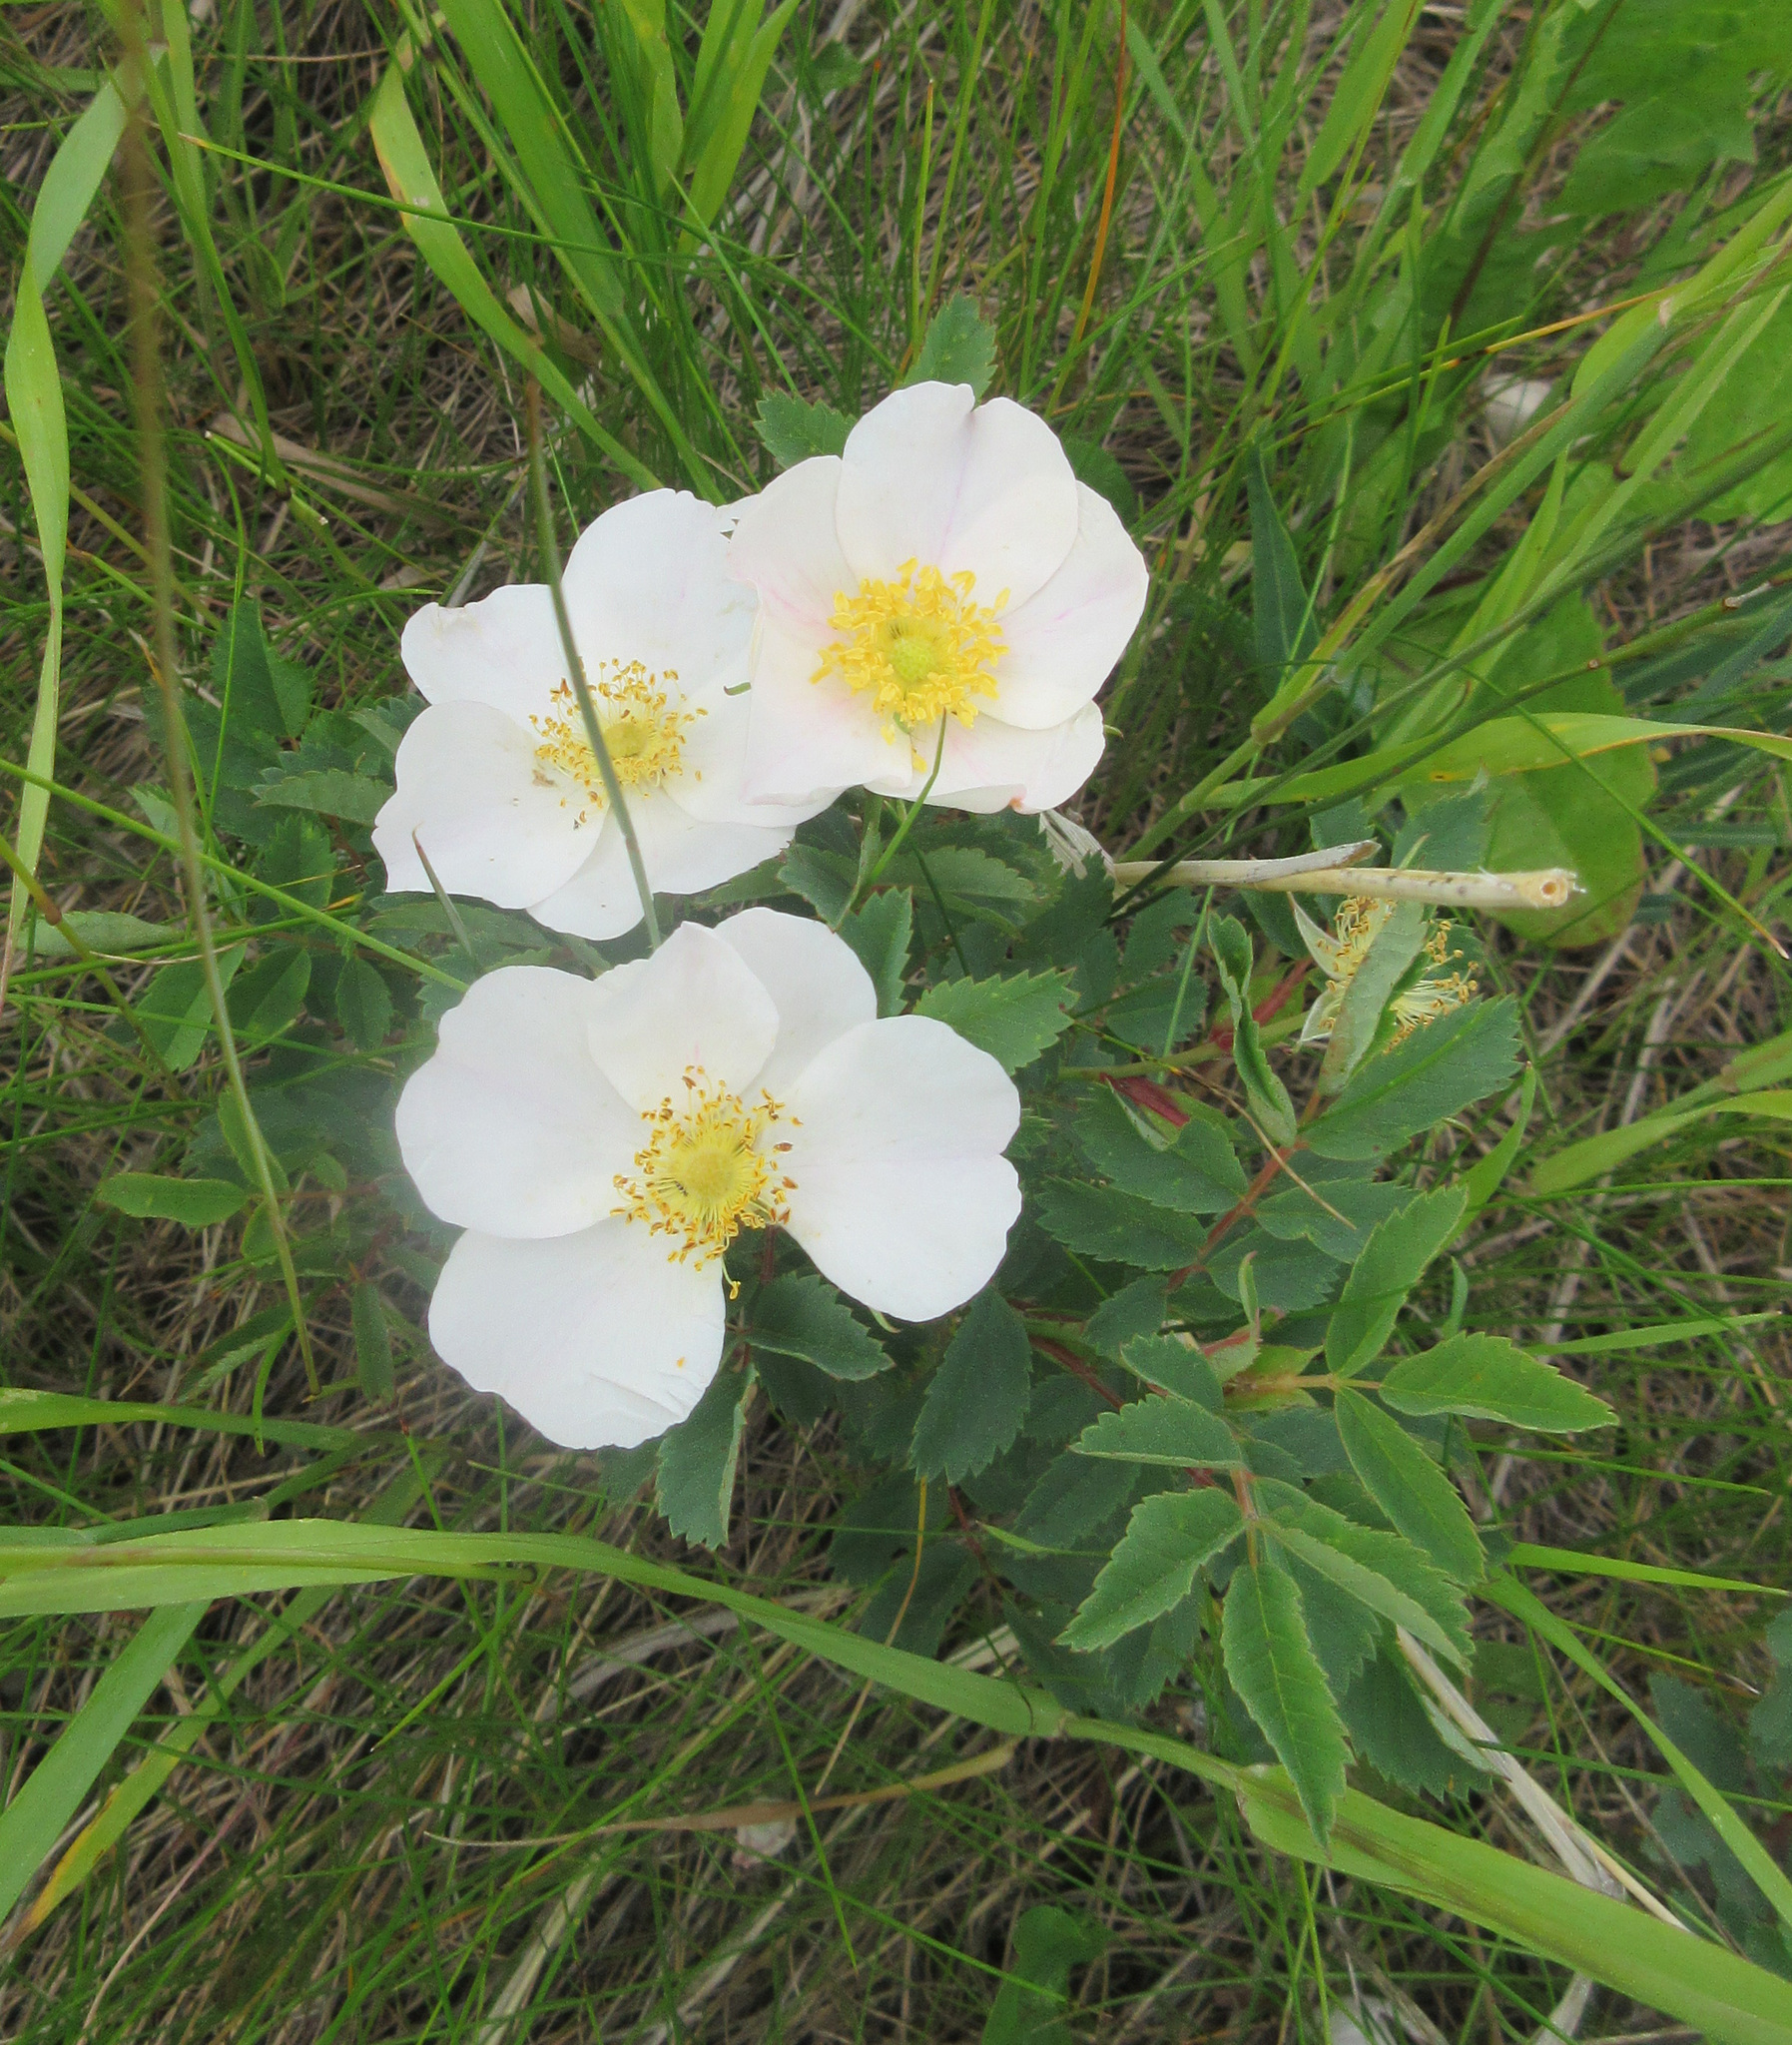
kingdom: Plantae
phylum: Tracheophyta
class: Magnoliopsida
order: Rosales
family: Rosaceae
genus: Rosa
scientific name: Rosa arkansana
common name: Prairie rose
